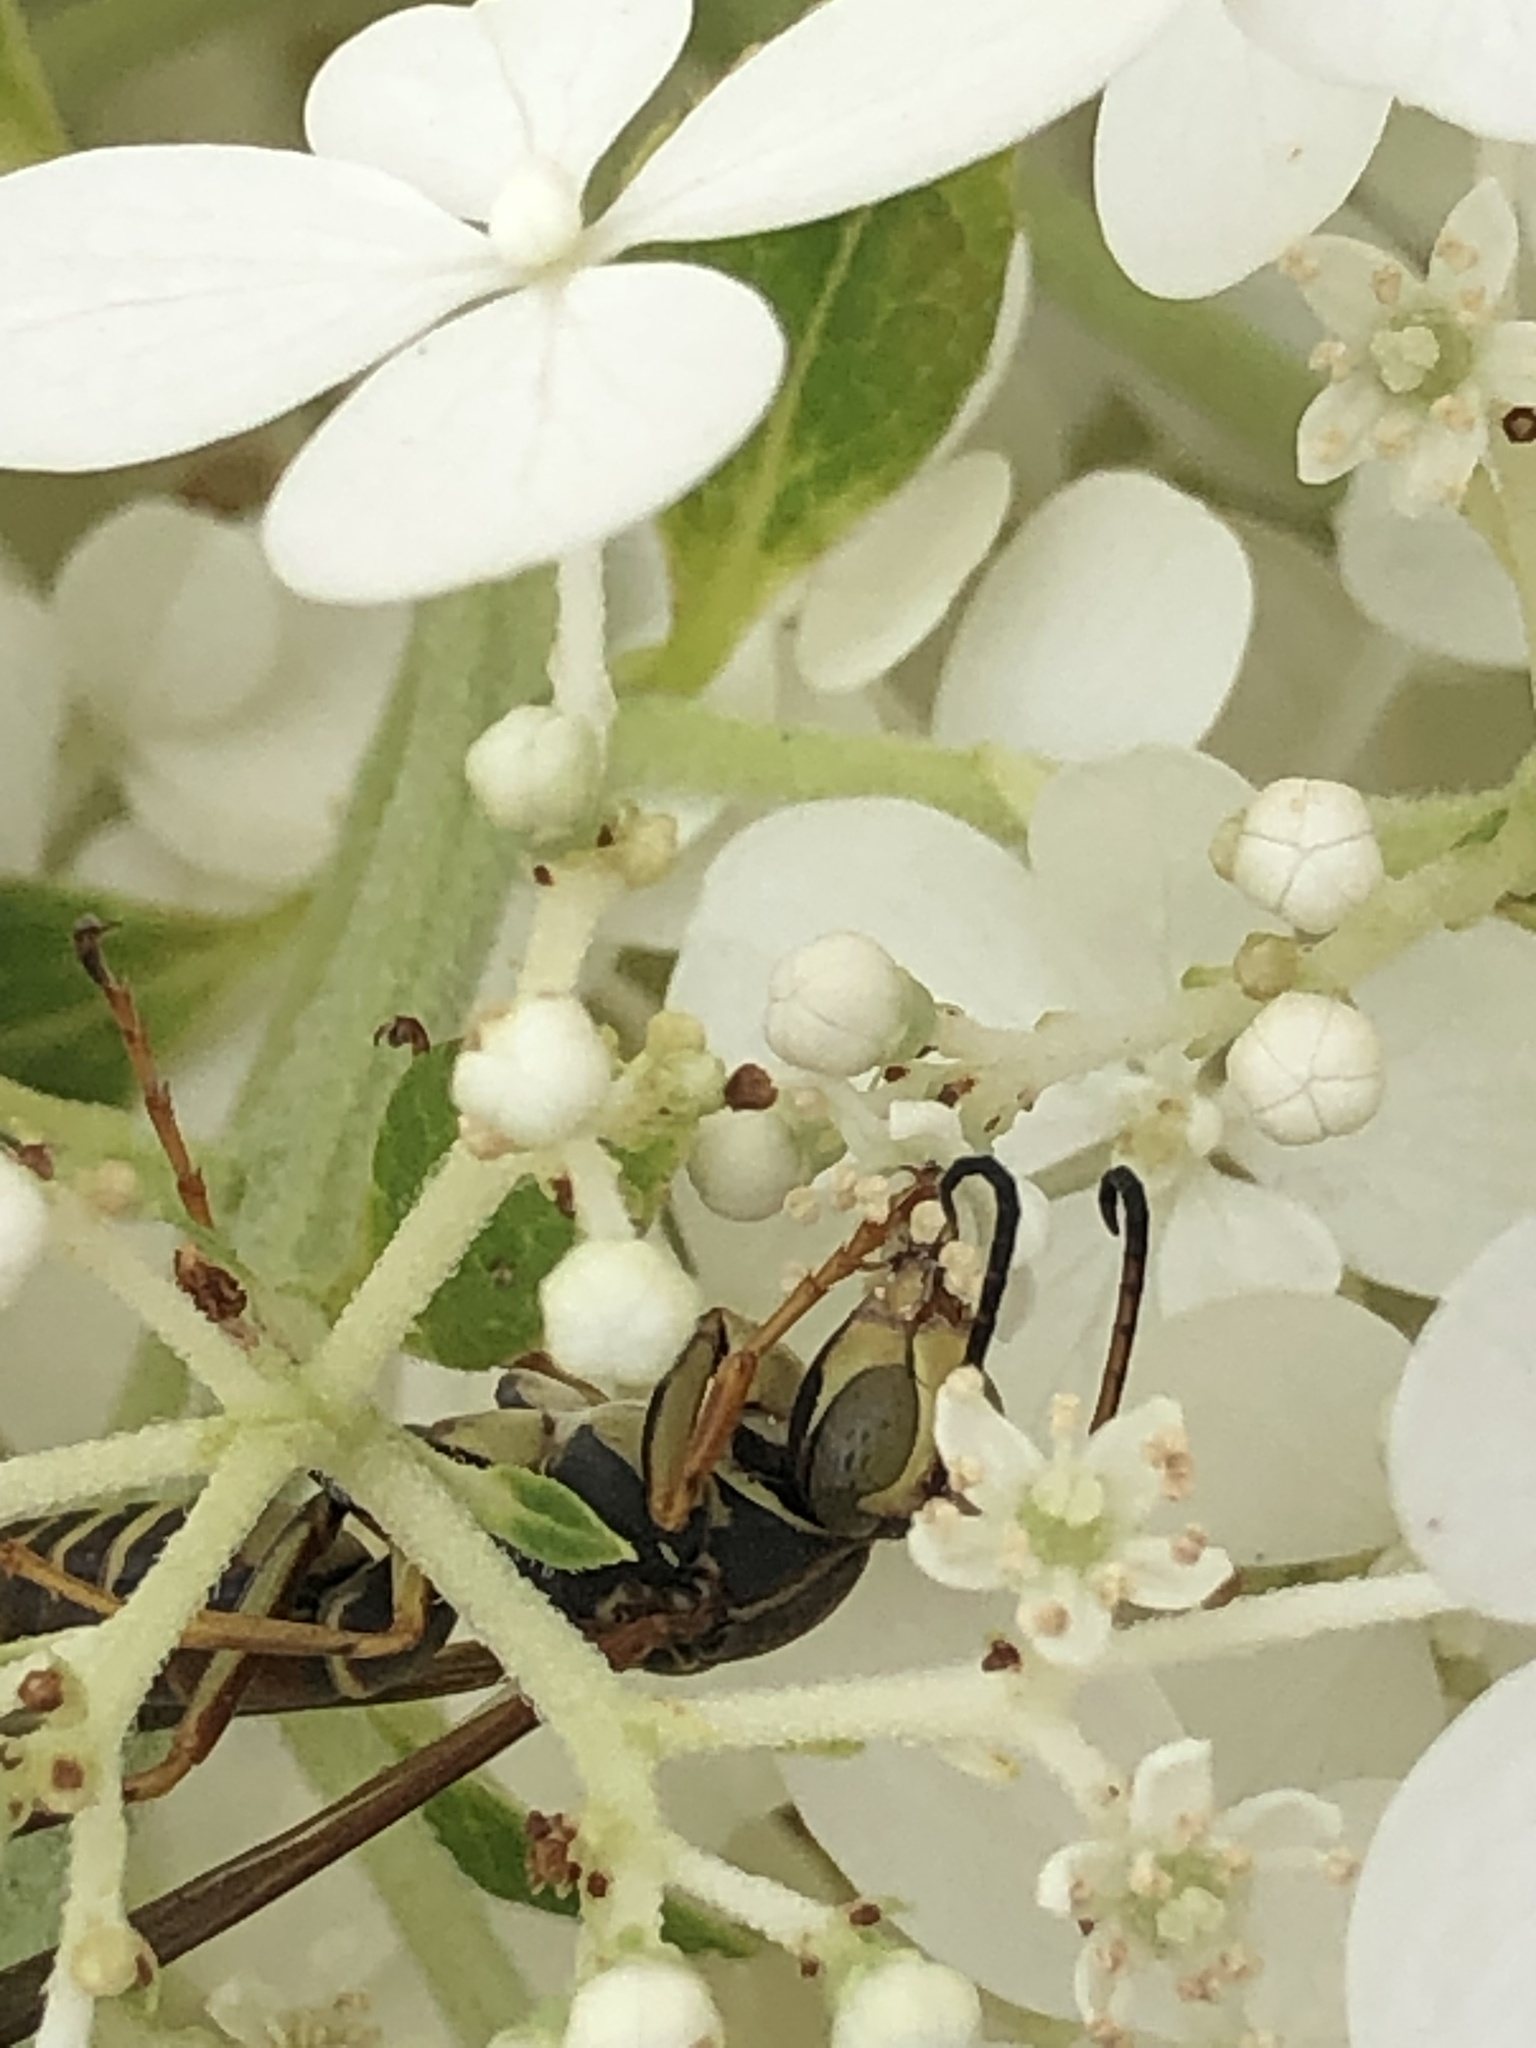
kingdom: Animalia
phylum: Arthropoda
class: Insecta
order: Hymenoptera
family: Eumenidae
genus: Polistes
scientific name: Polistes fuscatus
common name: Dark paper wasp
